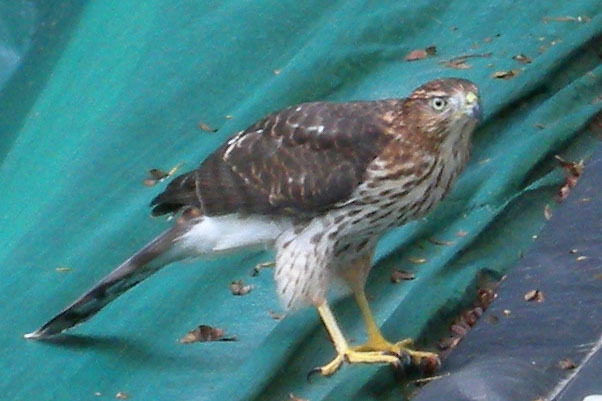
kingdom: Animalia
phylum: Chordata
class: Aves
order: Accipitriformes
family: Accipitridae
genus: Accipiter
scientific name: Accipiter cooperii
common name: Cooper's hawk
